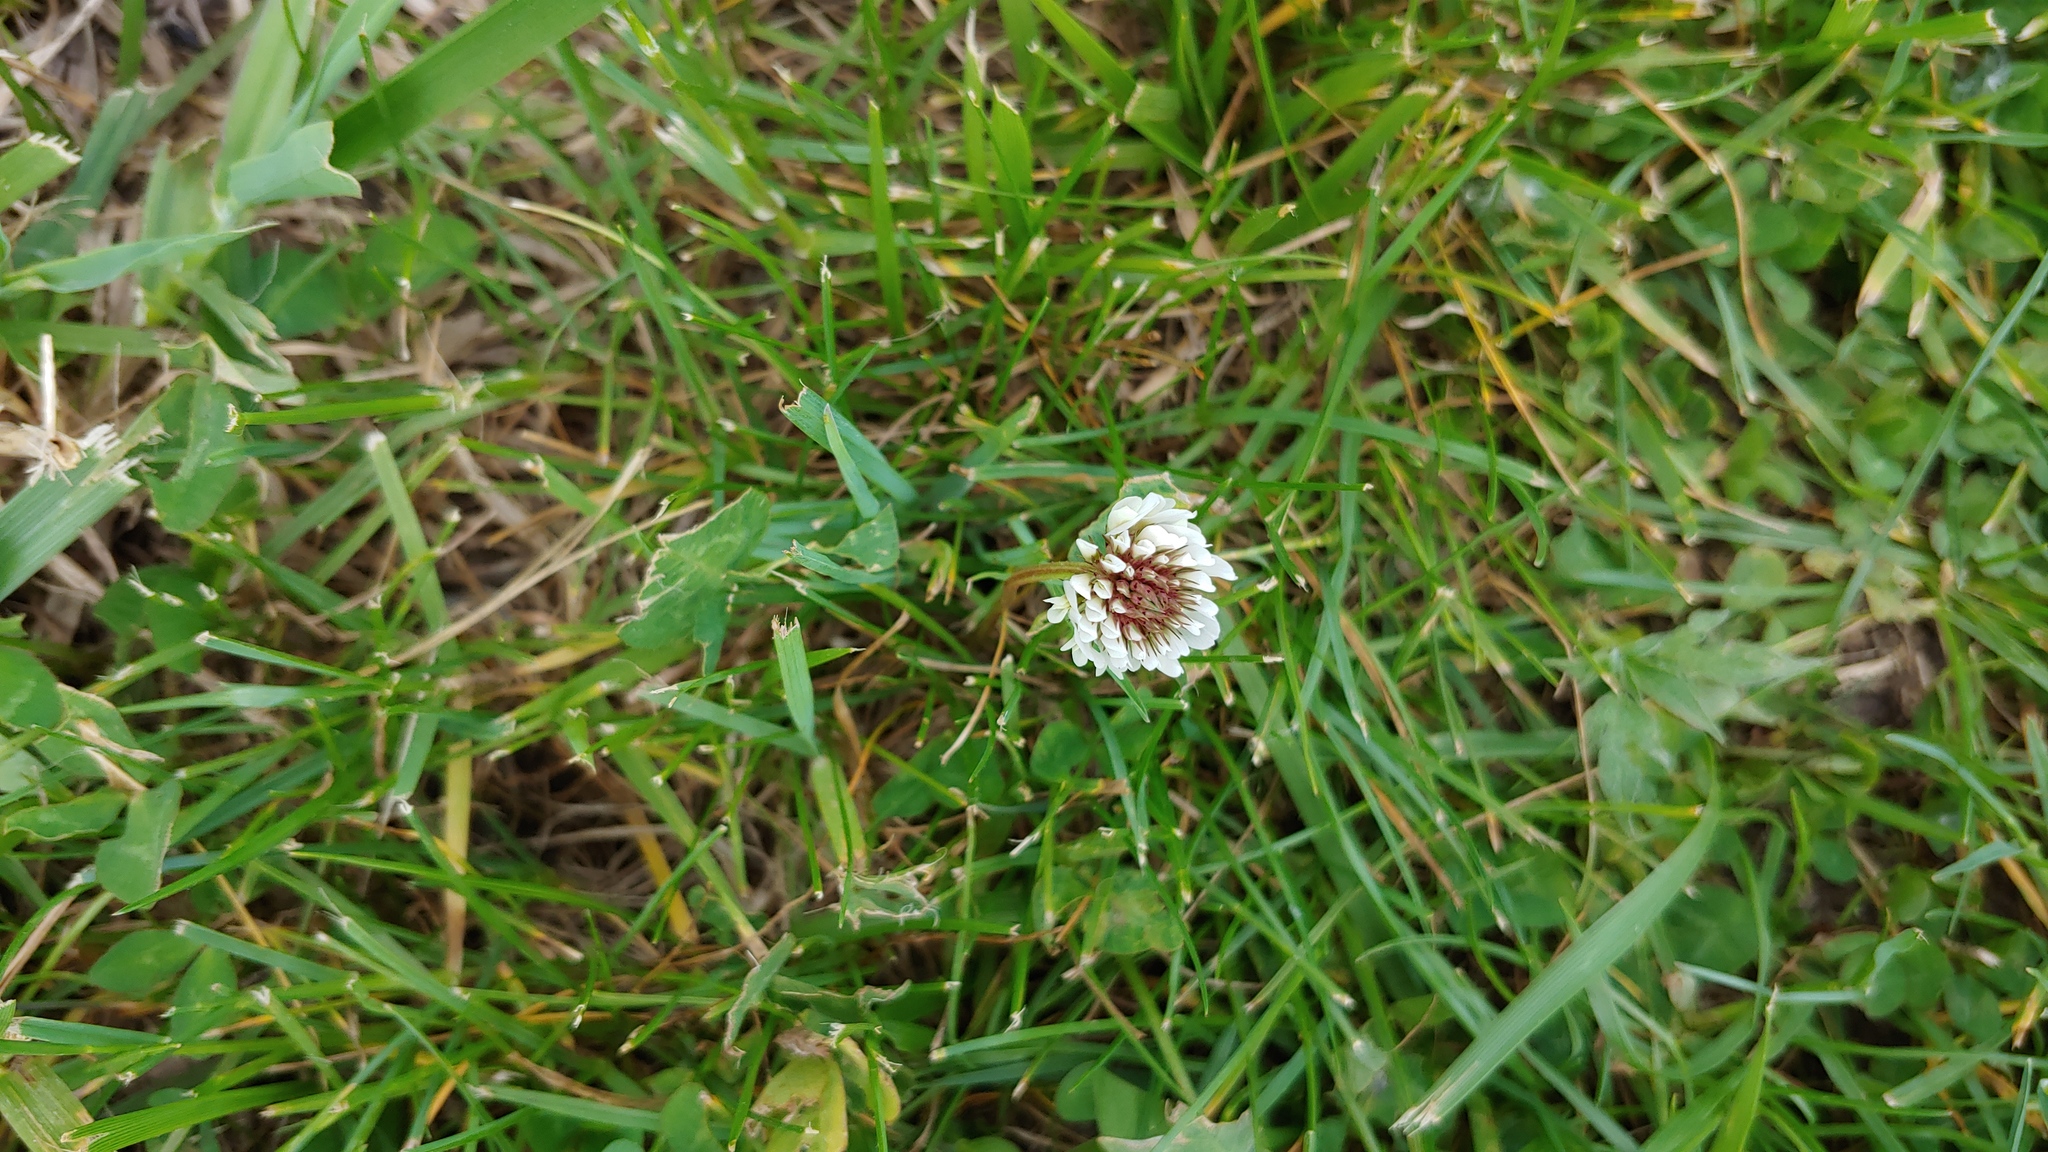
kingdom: Plantae
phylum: Tracheophyta
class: Magnoliopsida
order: Fabales
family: Fabaceae
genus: Trifolium
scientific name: Trifolium repens
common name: White clover
